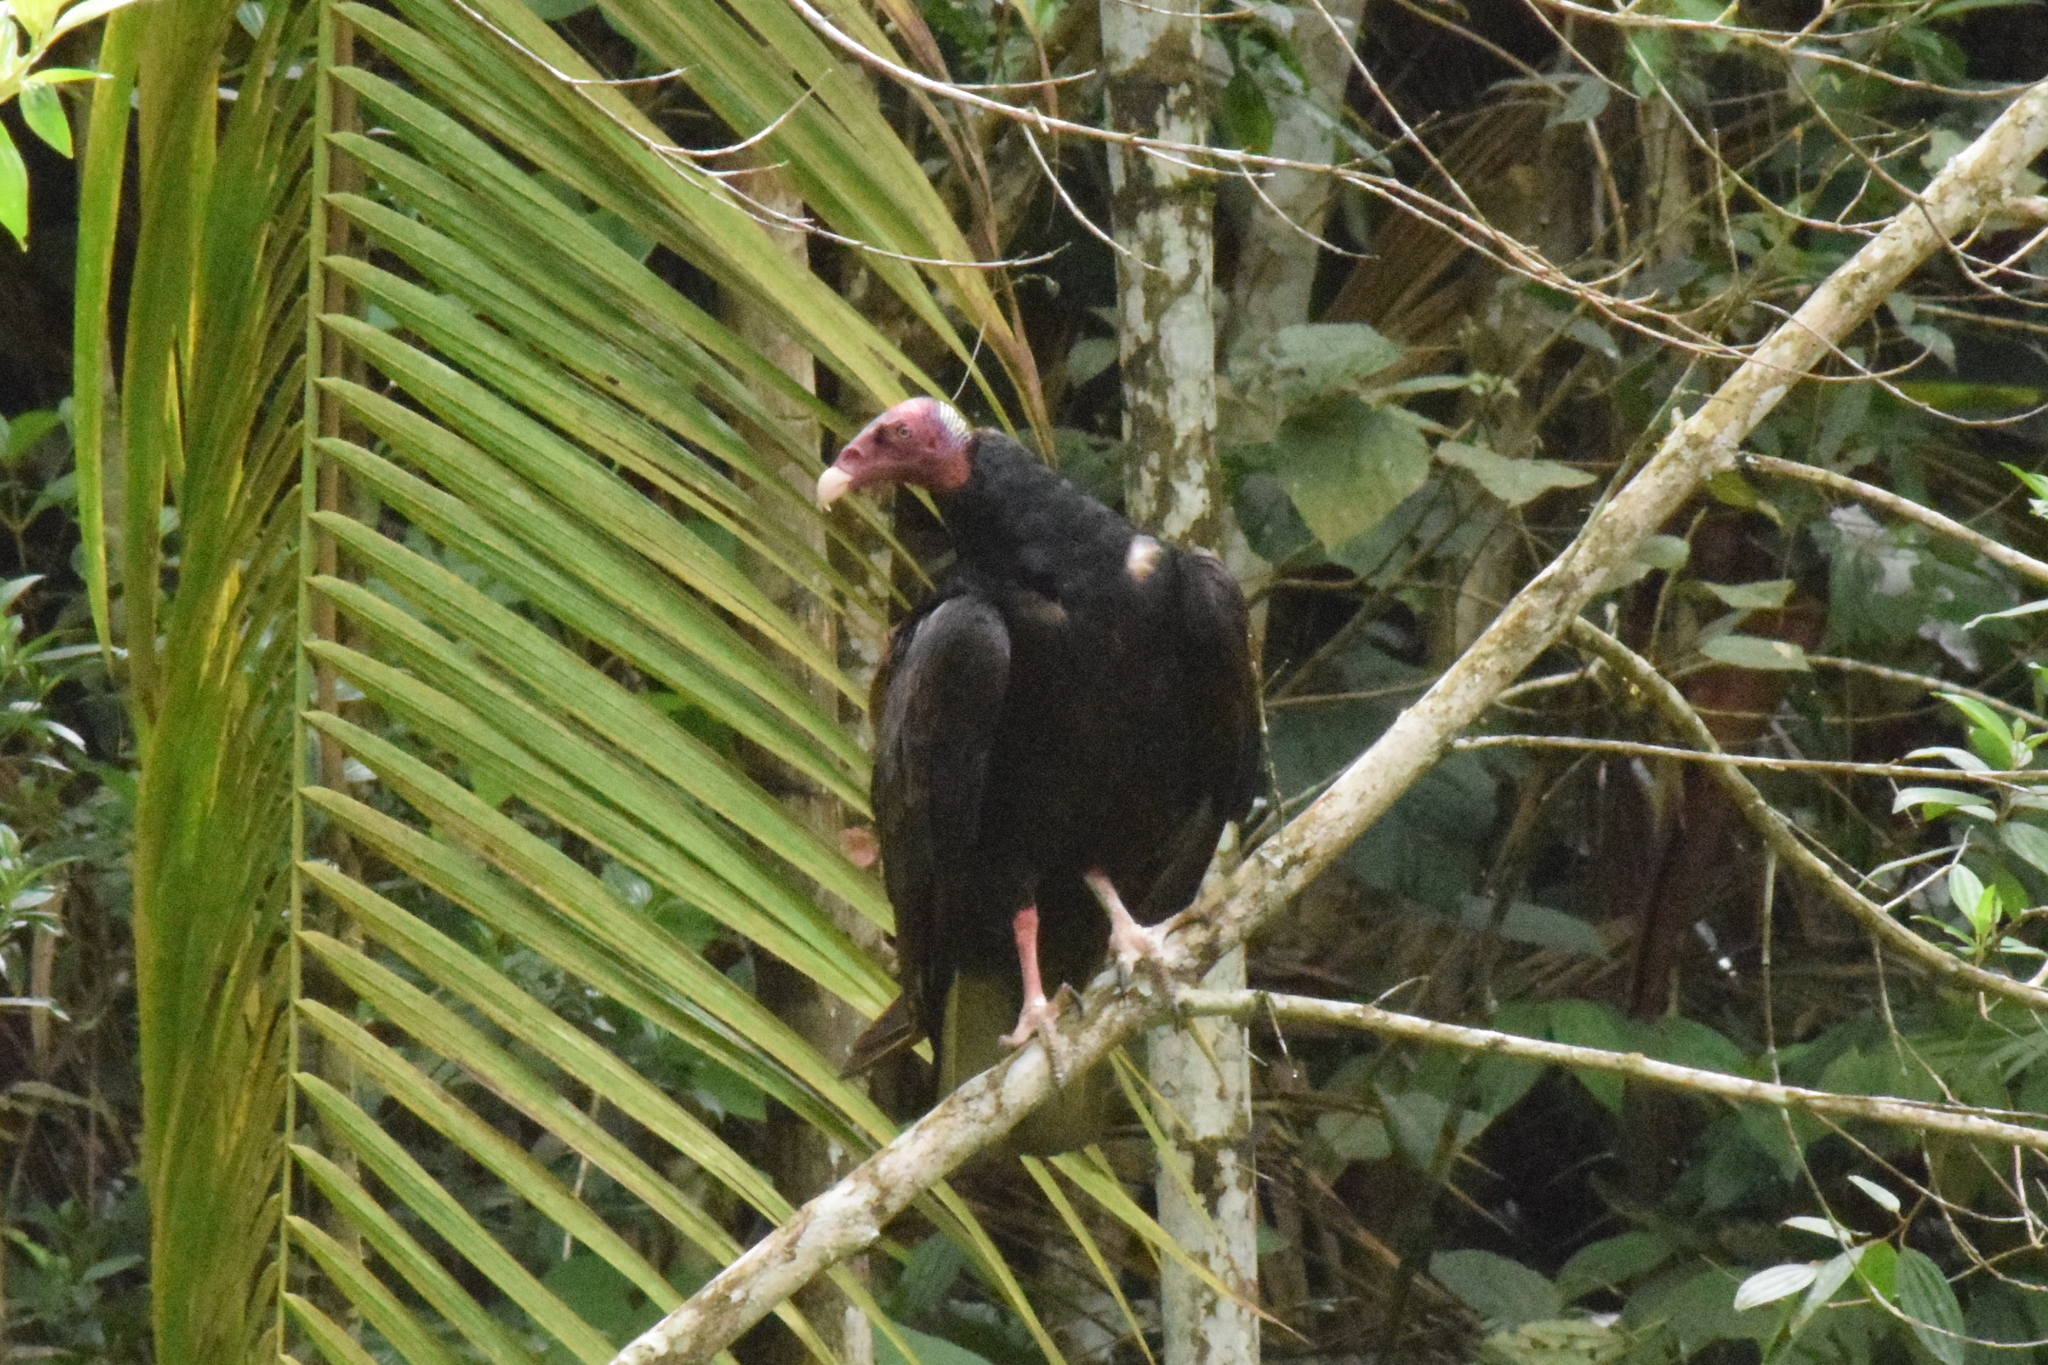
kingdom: Animalia
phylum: Chordata
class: Aves
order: Accipitriformes
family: Cathartidae
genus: Cathartes
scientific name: Cathartes aura
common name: Turkey vulture
